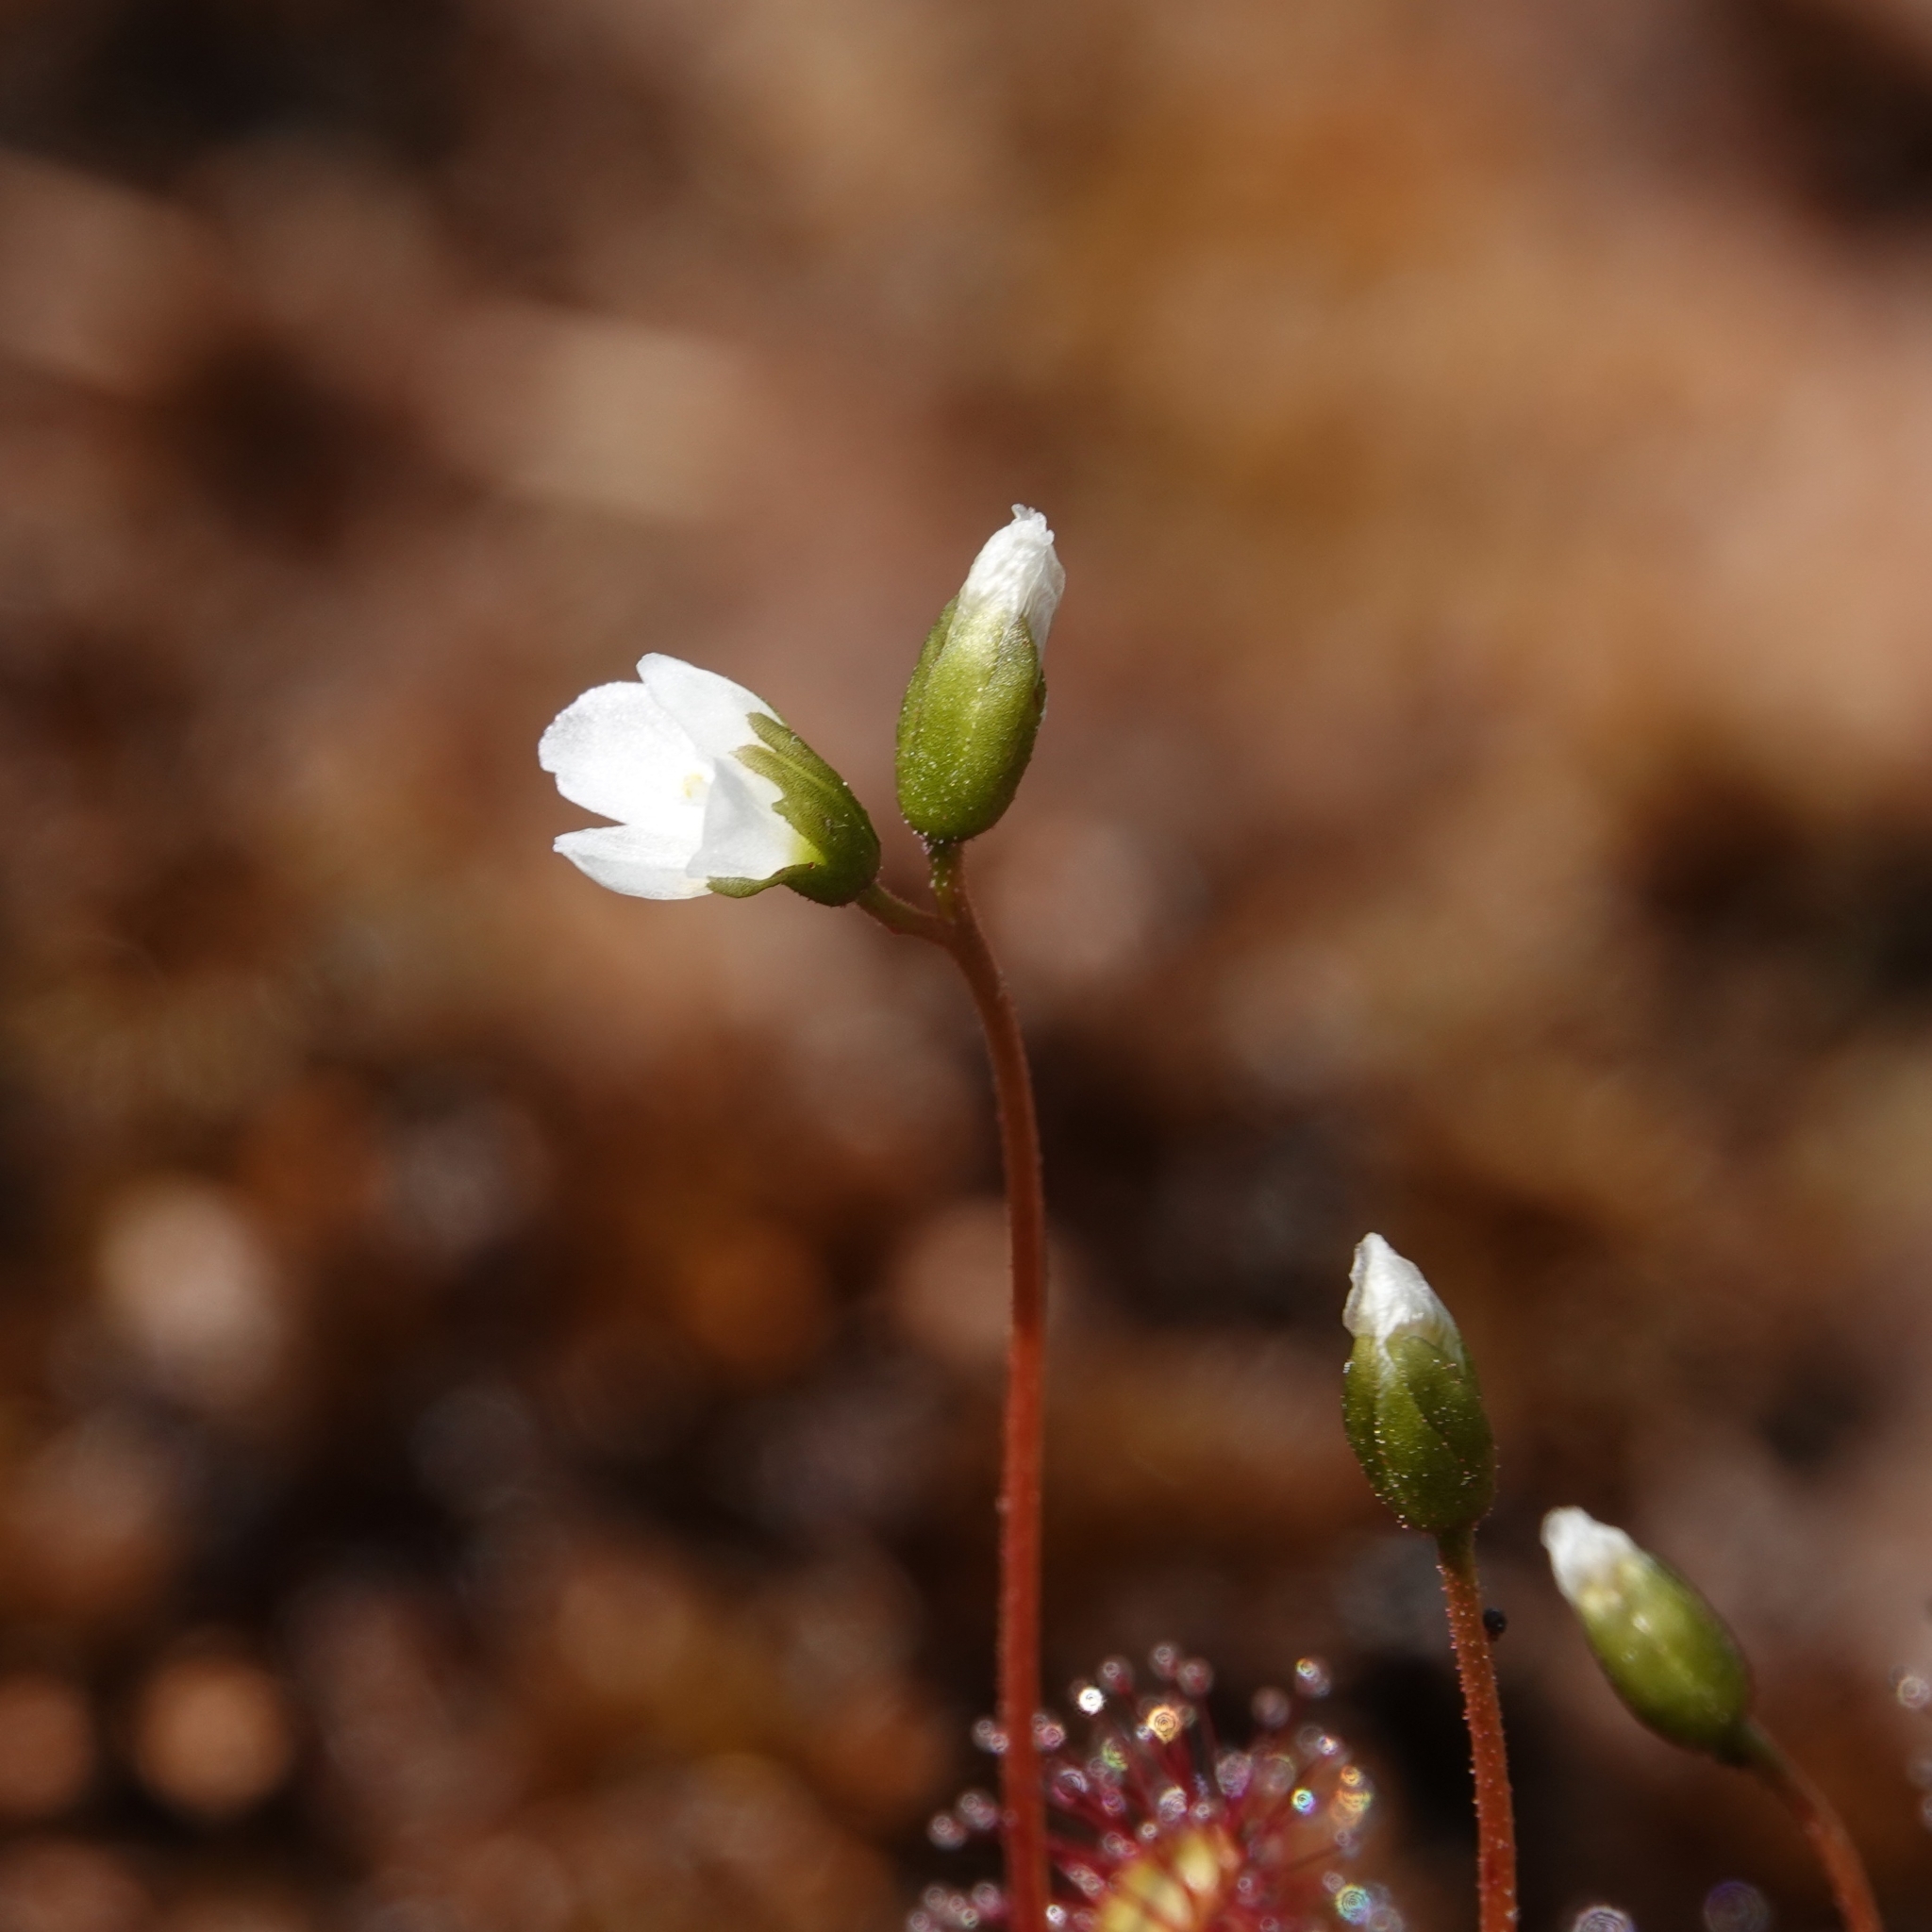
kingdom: Plantae
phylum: Tracheophyta
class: Magnoliopsida
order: Caryophyllales
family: Droseraceae
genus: Drosera
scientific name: Drosera anglica
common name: Great sundew
